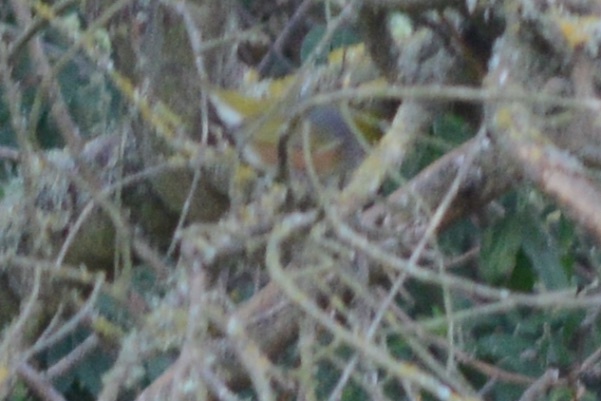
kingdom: Animalia
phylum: Chordata
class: Aves
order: Passeriformes
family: Zosteropidae
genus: Zosterops
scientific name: Zosterops lateralis
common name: Silvereye
